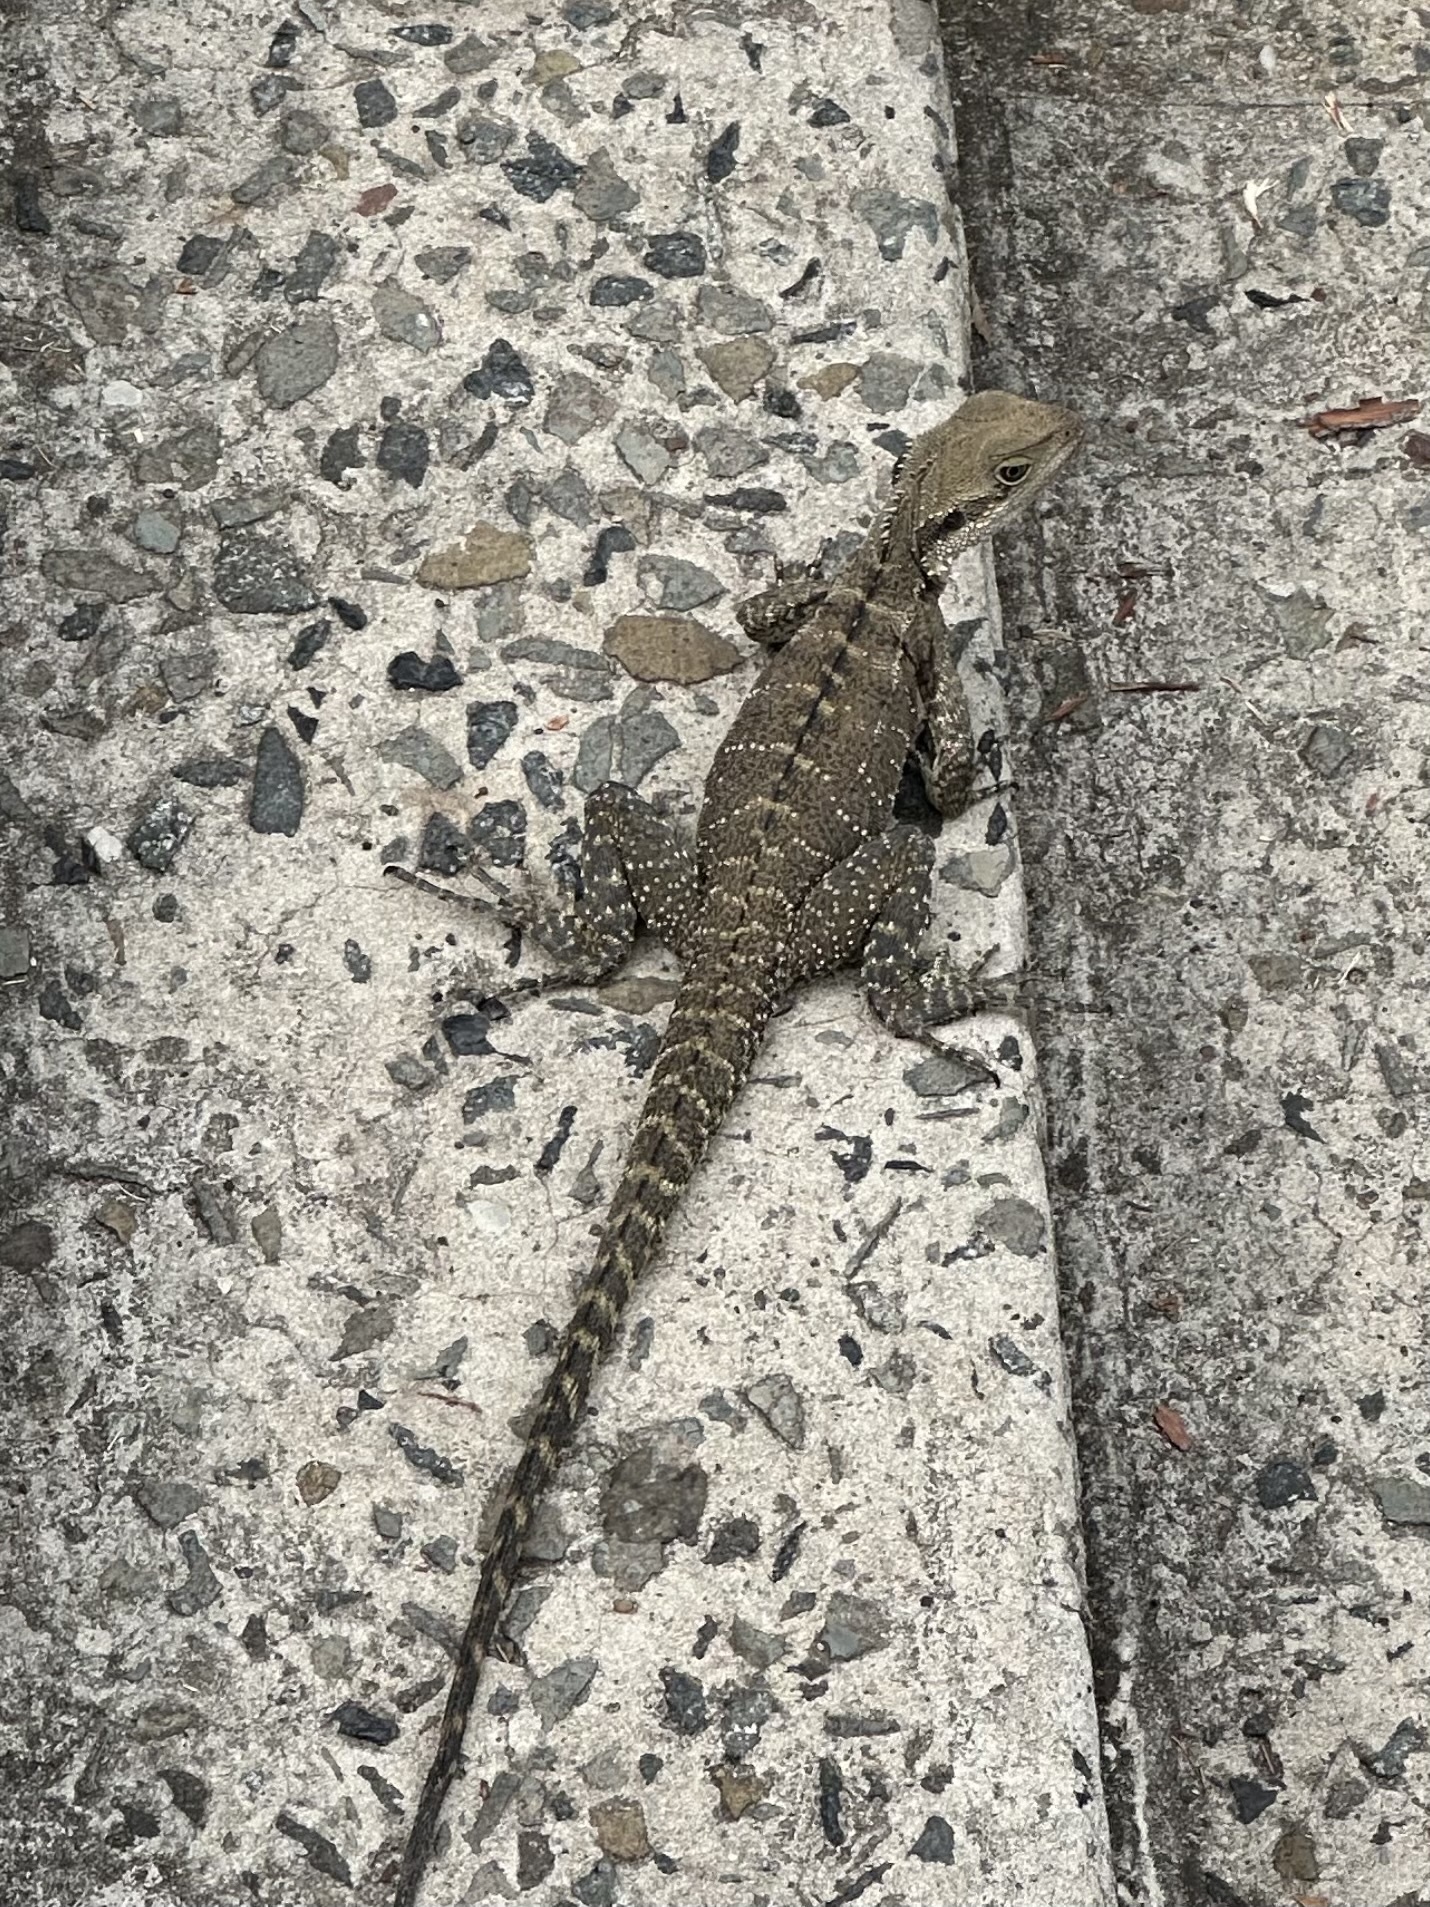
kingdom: Animalia
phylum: Chordata
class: Squamata
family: Agamidae
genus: Intellagama
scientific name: Intellagama lesueurii
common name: Eastern water dragon
